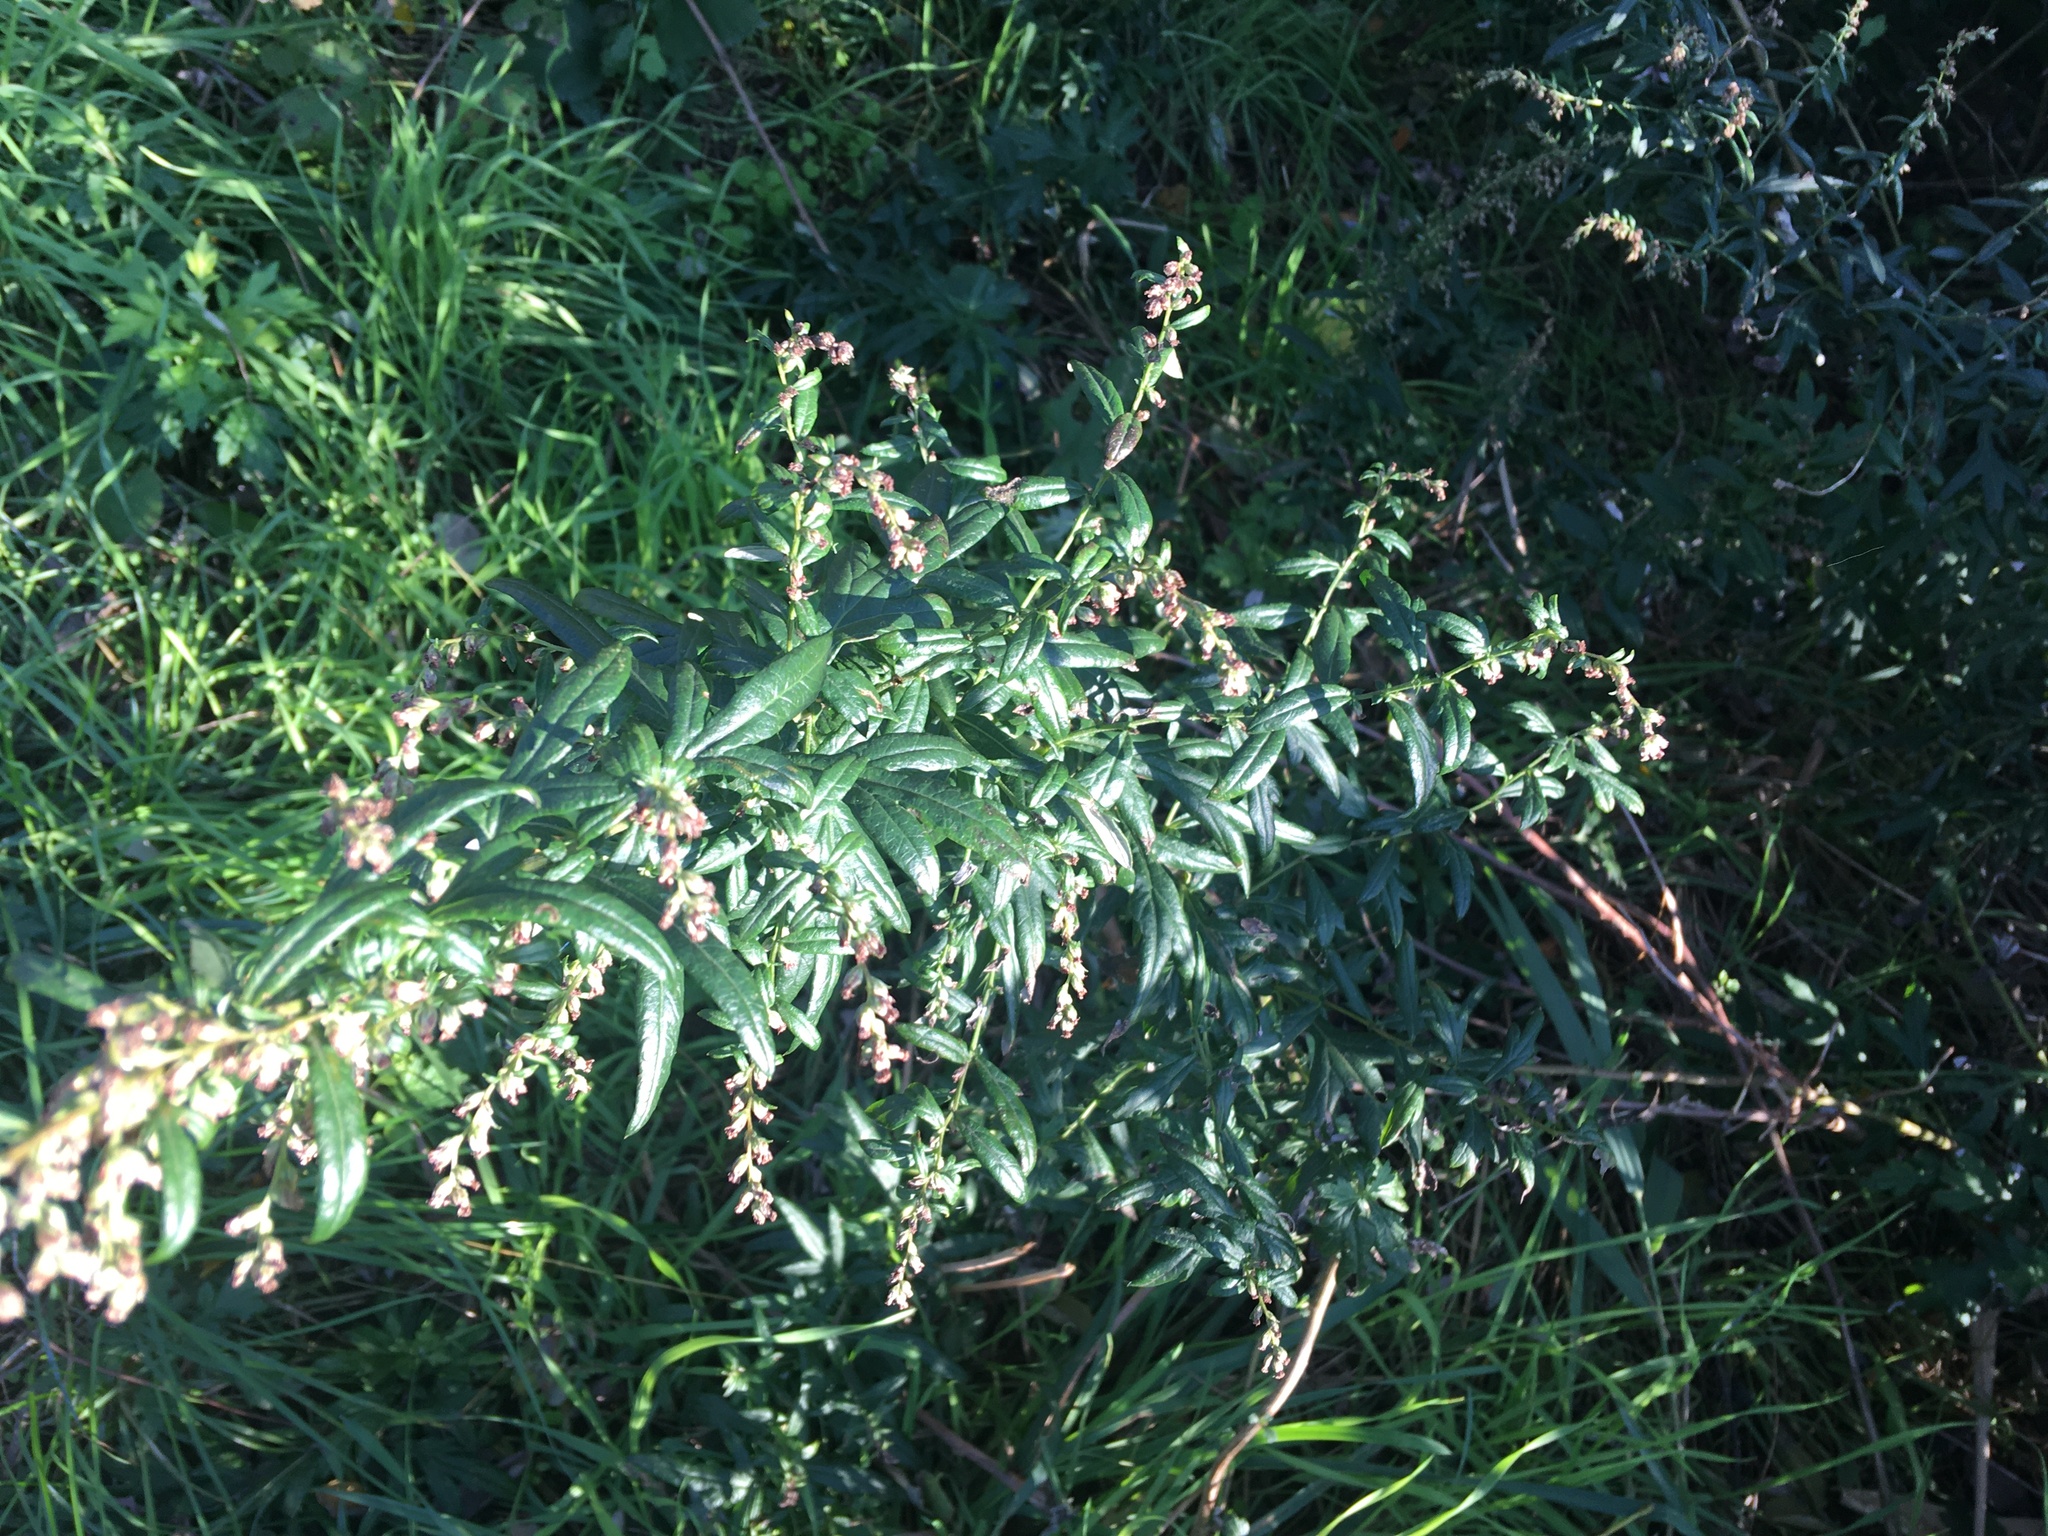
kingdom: Plantae
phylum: Tracheophyta
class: Magnoliopsida
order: Asterales
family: Asteraceae
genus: Artemisia
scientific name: Artemisia vulgaris
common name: Mugwort
